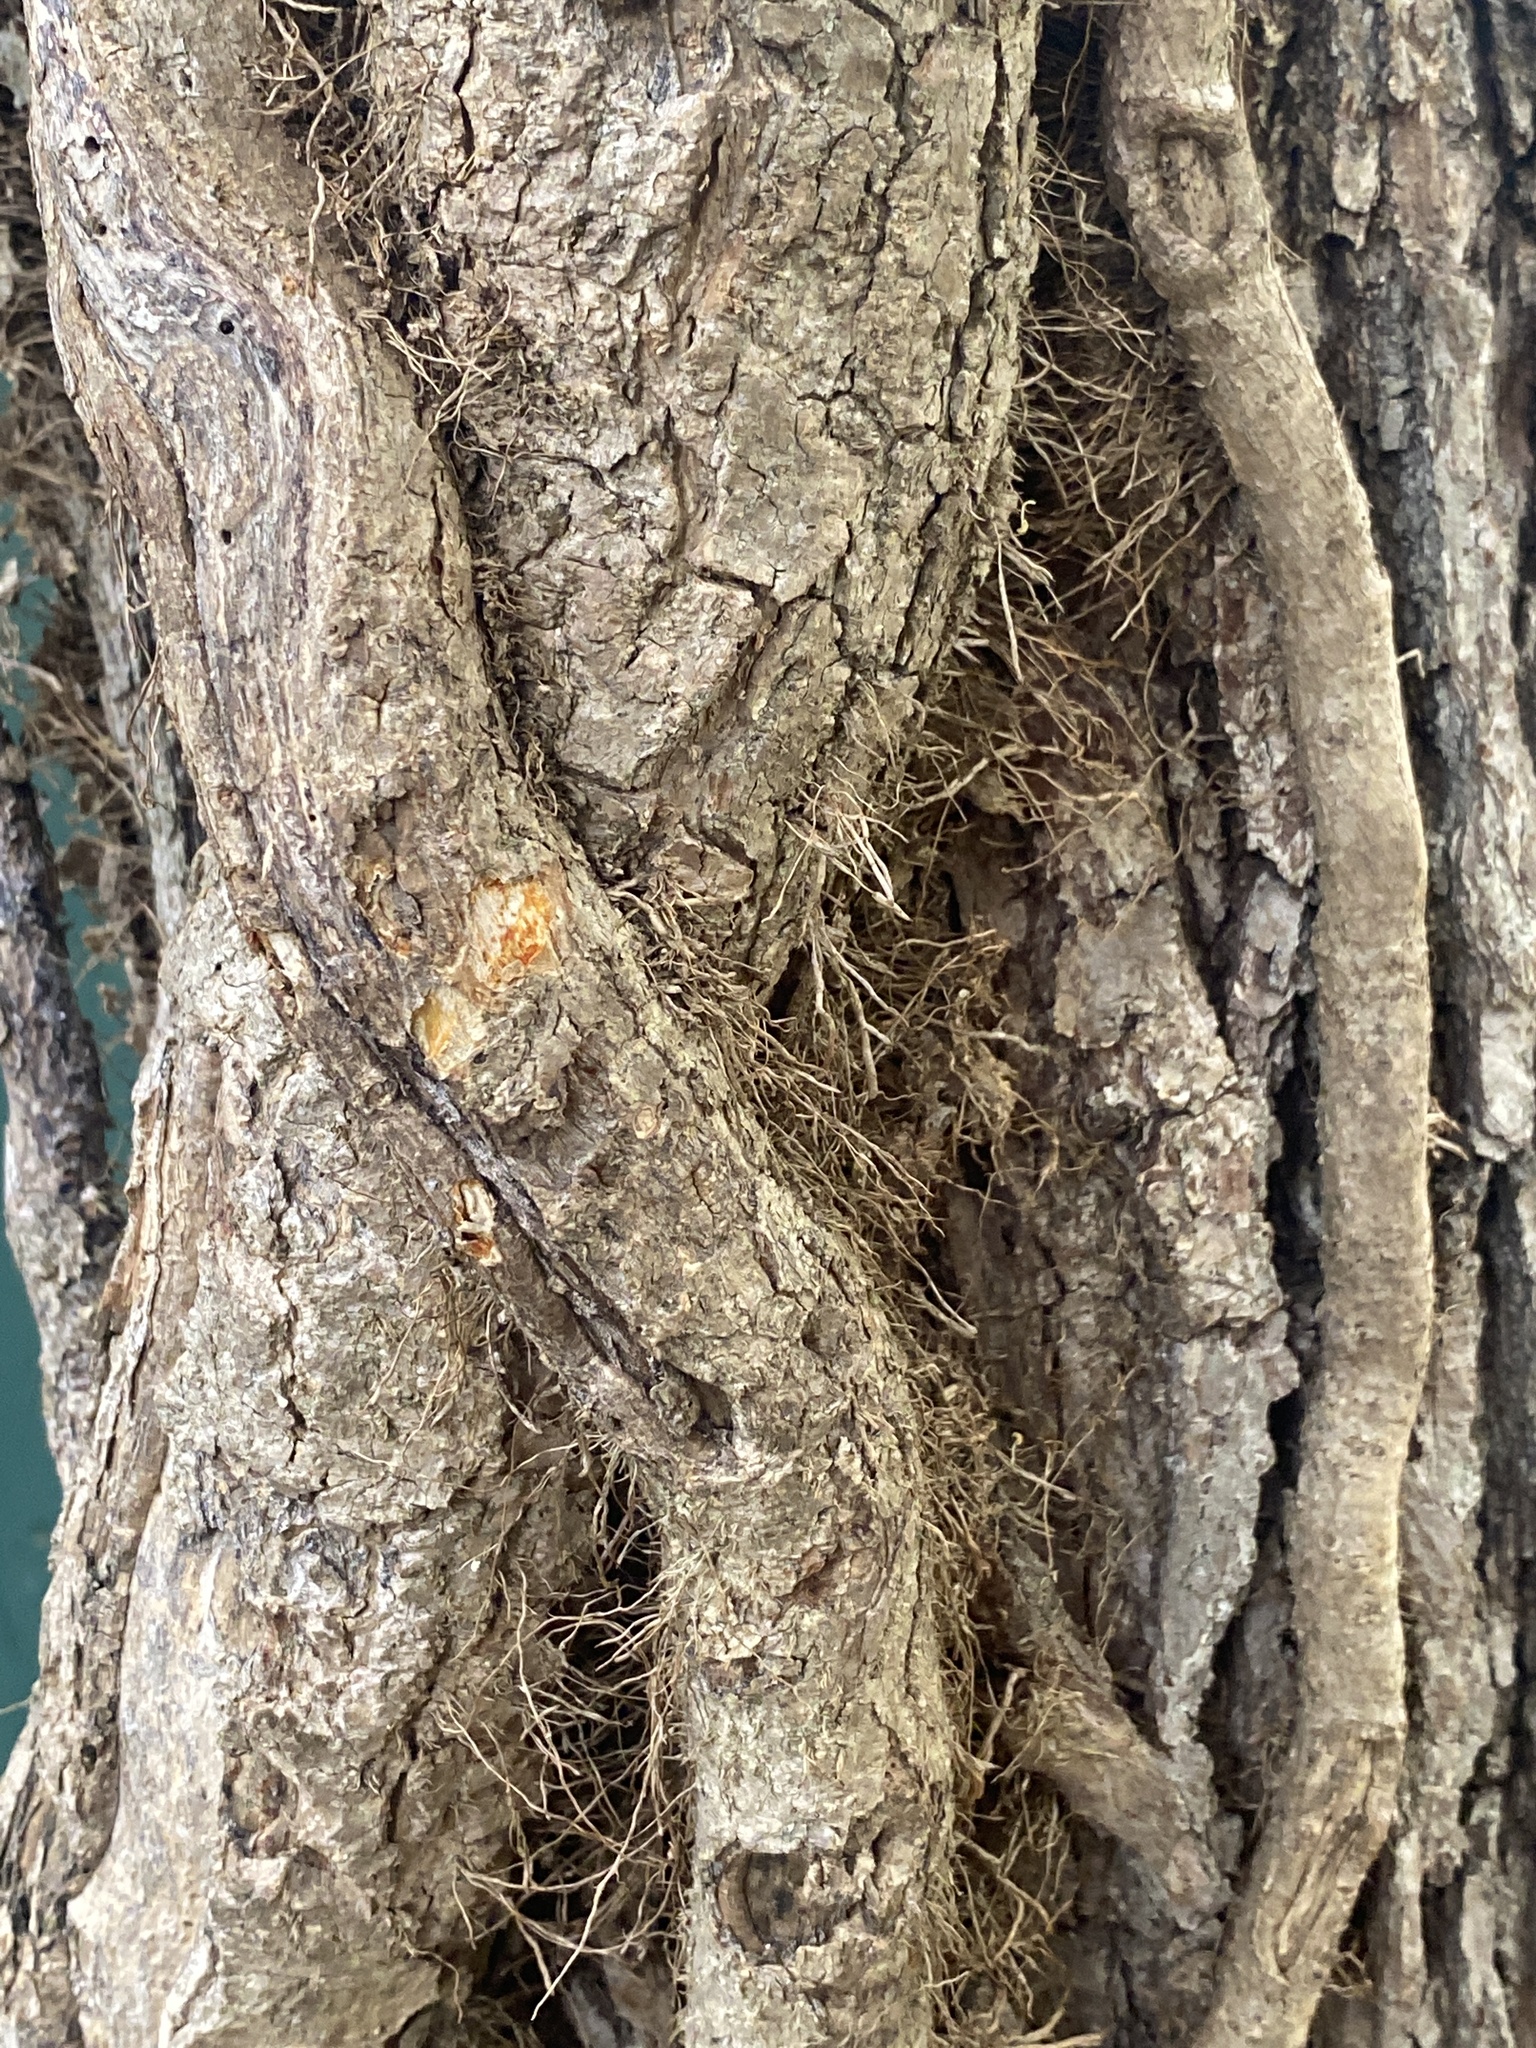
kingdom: Plantae
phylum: Tracheophyta
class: Magnoliopsida
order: Sapindales
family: Anacardiaceae
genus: Toxicodendron
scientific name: Toxicodendron radicans
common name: Poison ivy
